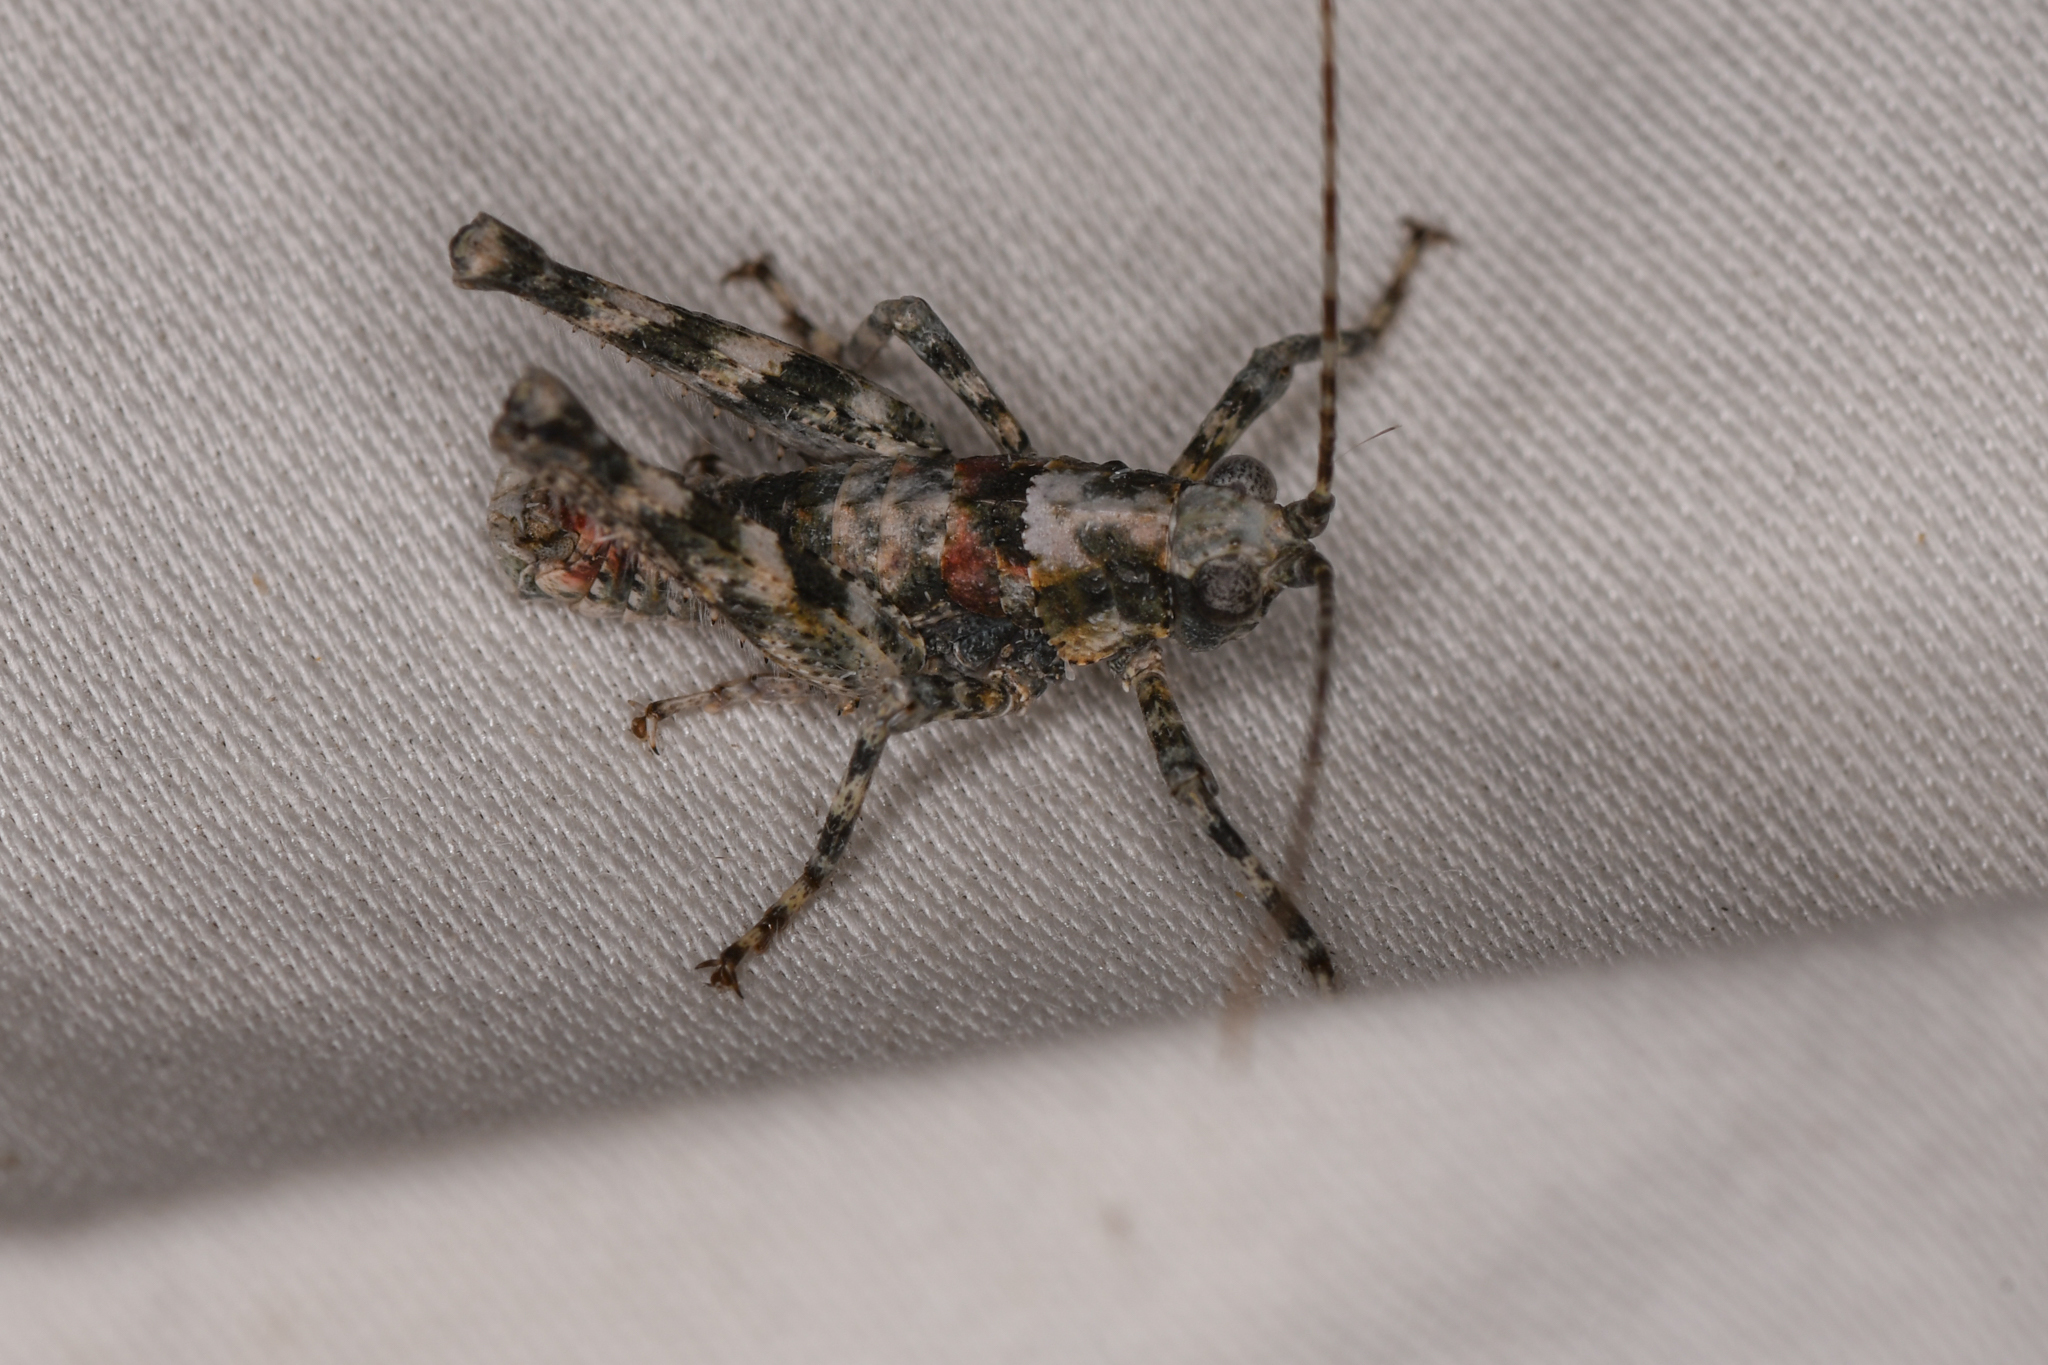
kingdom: Animalia
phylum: Arthropoda
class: Insecta
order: Orthoptera
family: Tanaoceridae
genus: Tanaocerus
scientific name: Tanaocerus koebelei
